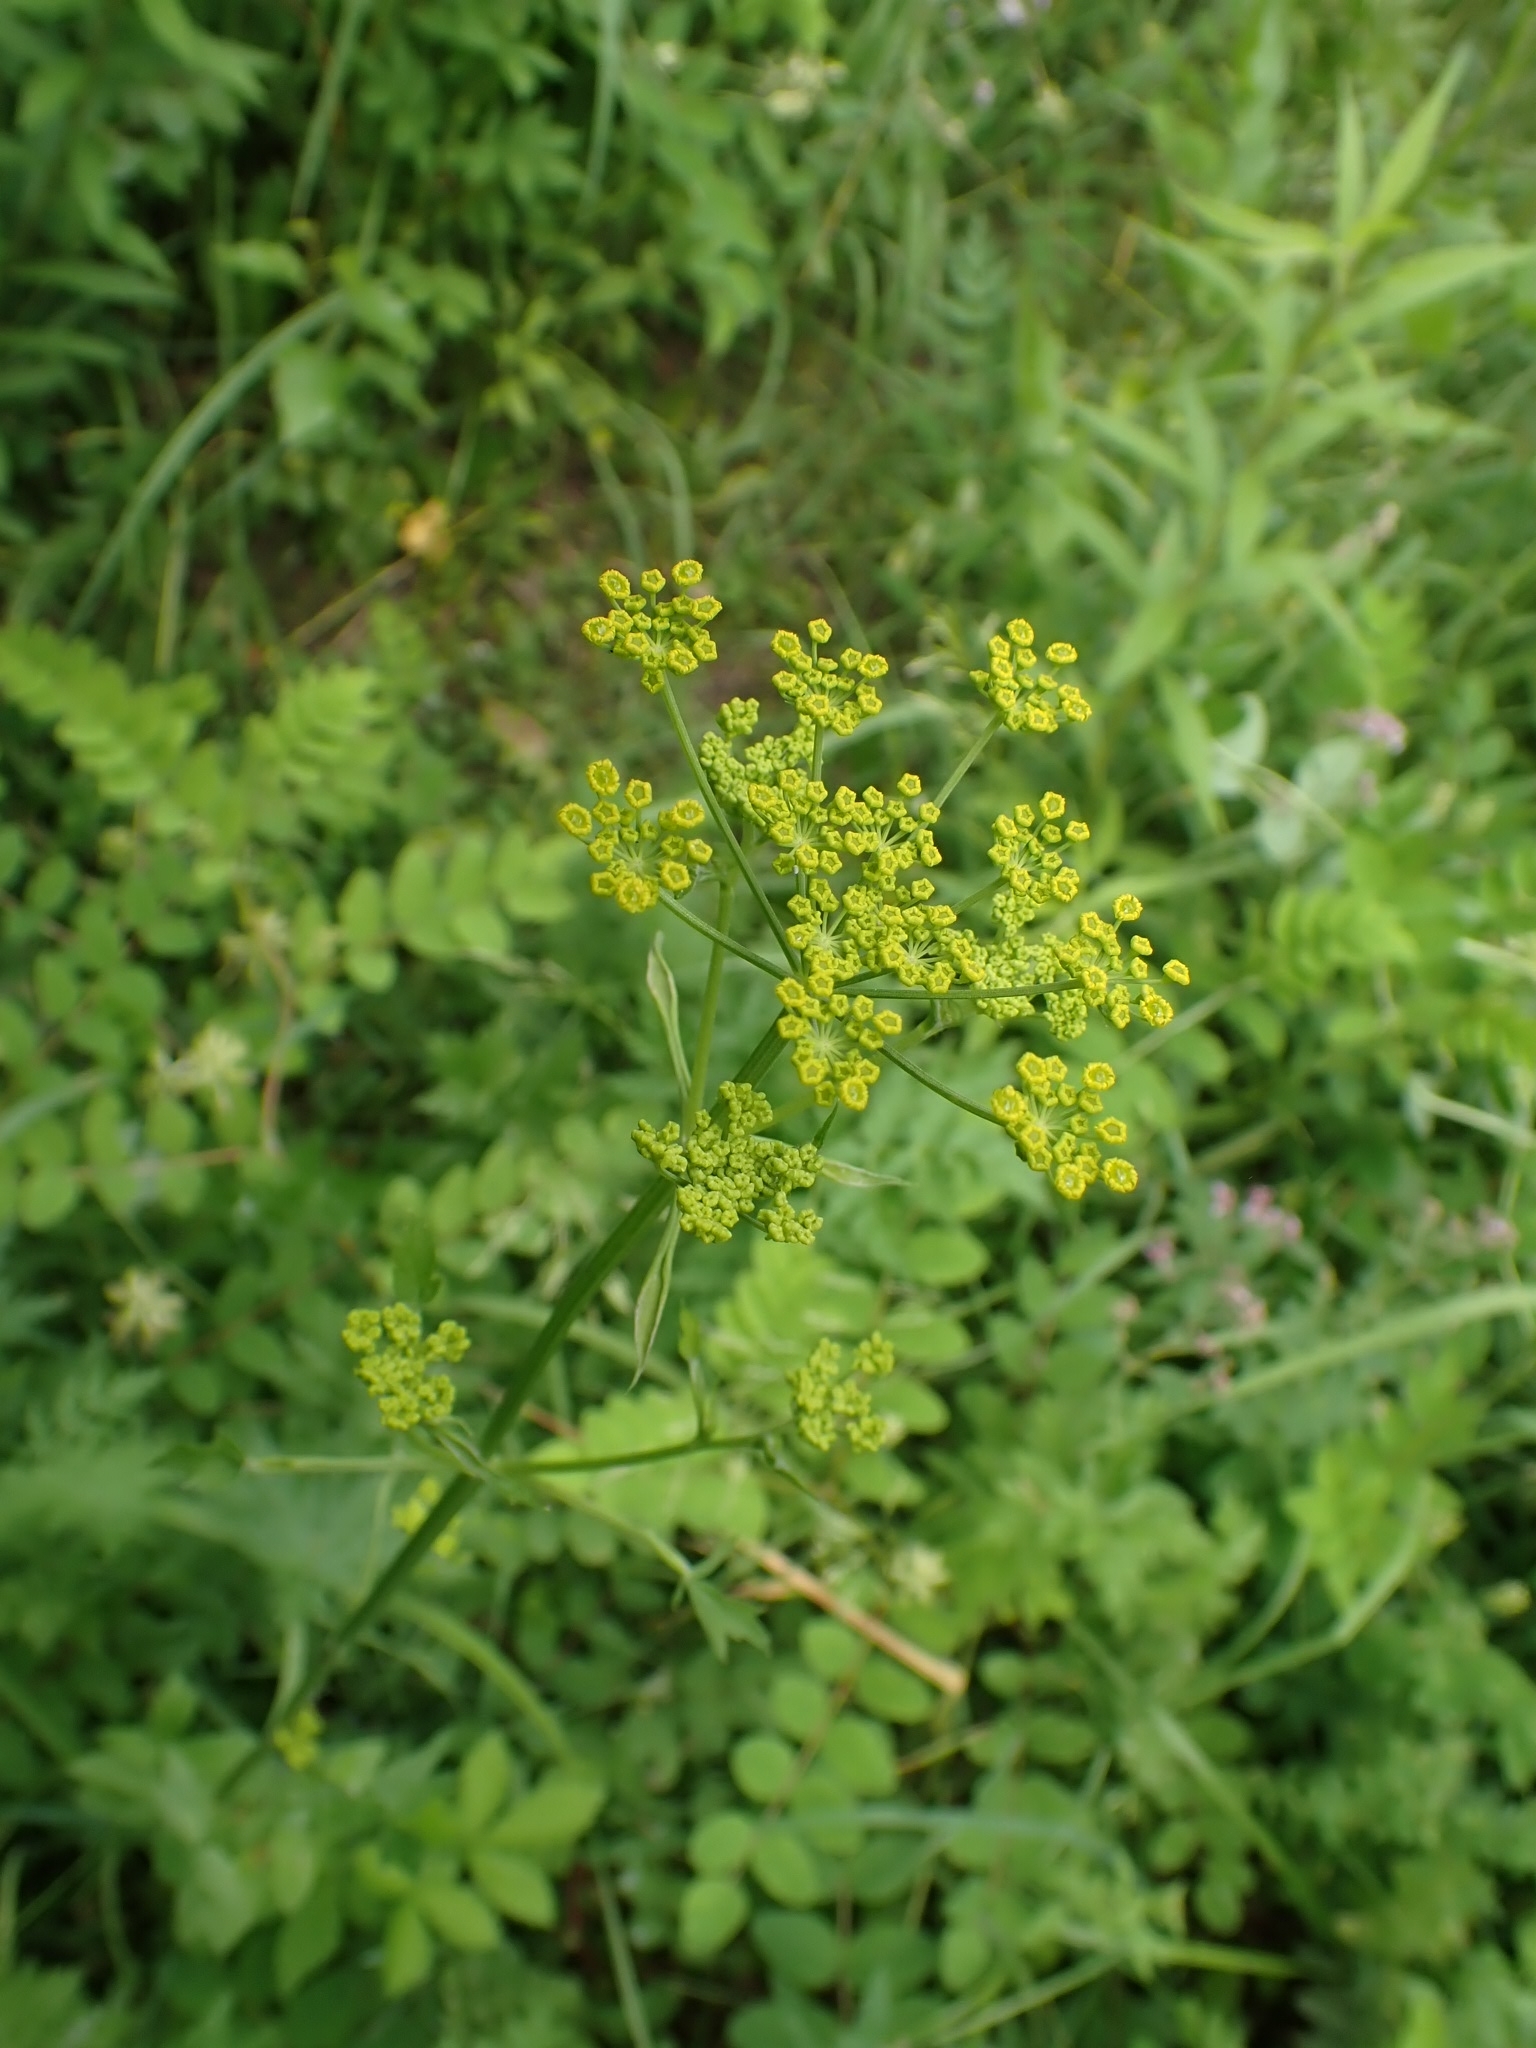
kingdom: Plantae
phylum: Tracheophyta
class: Magnoliopsida
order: Apiales
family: Apiaceae
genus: Pastinaca
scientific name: Pastinaca sativa
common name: Wild parsnip
